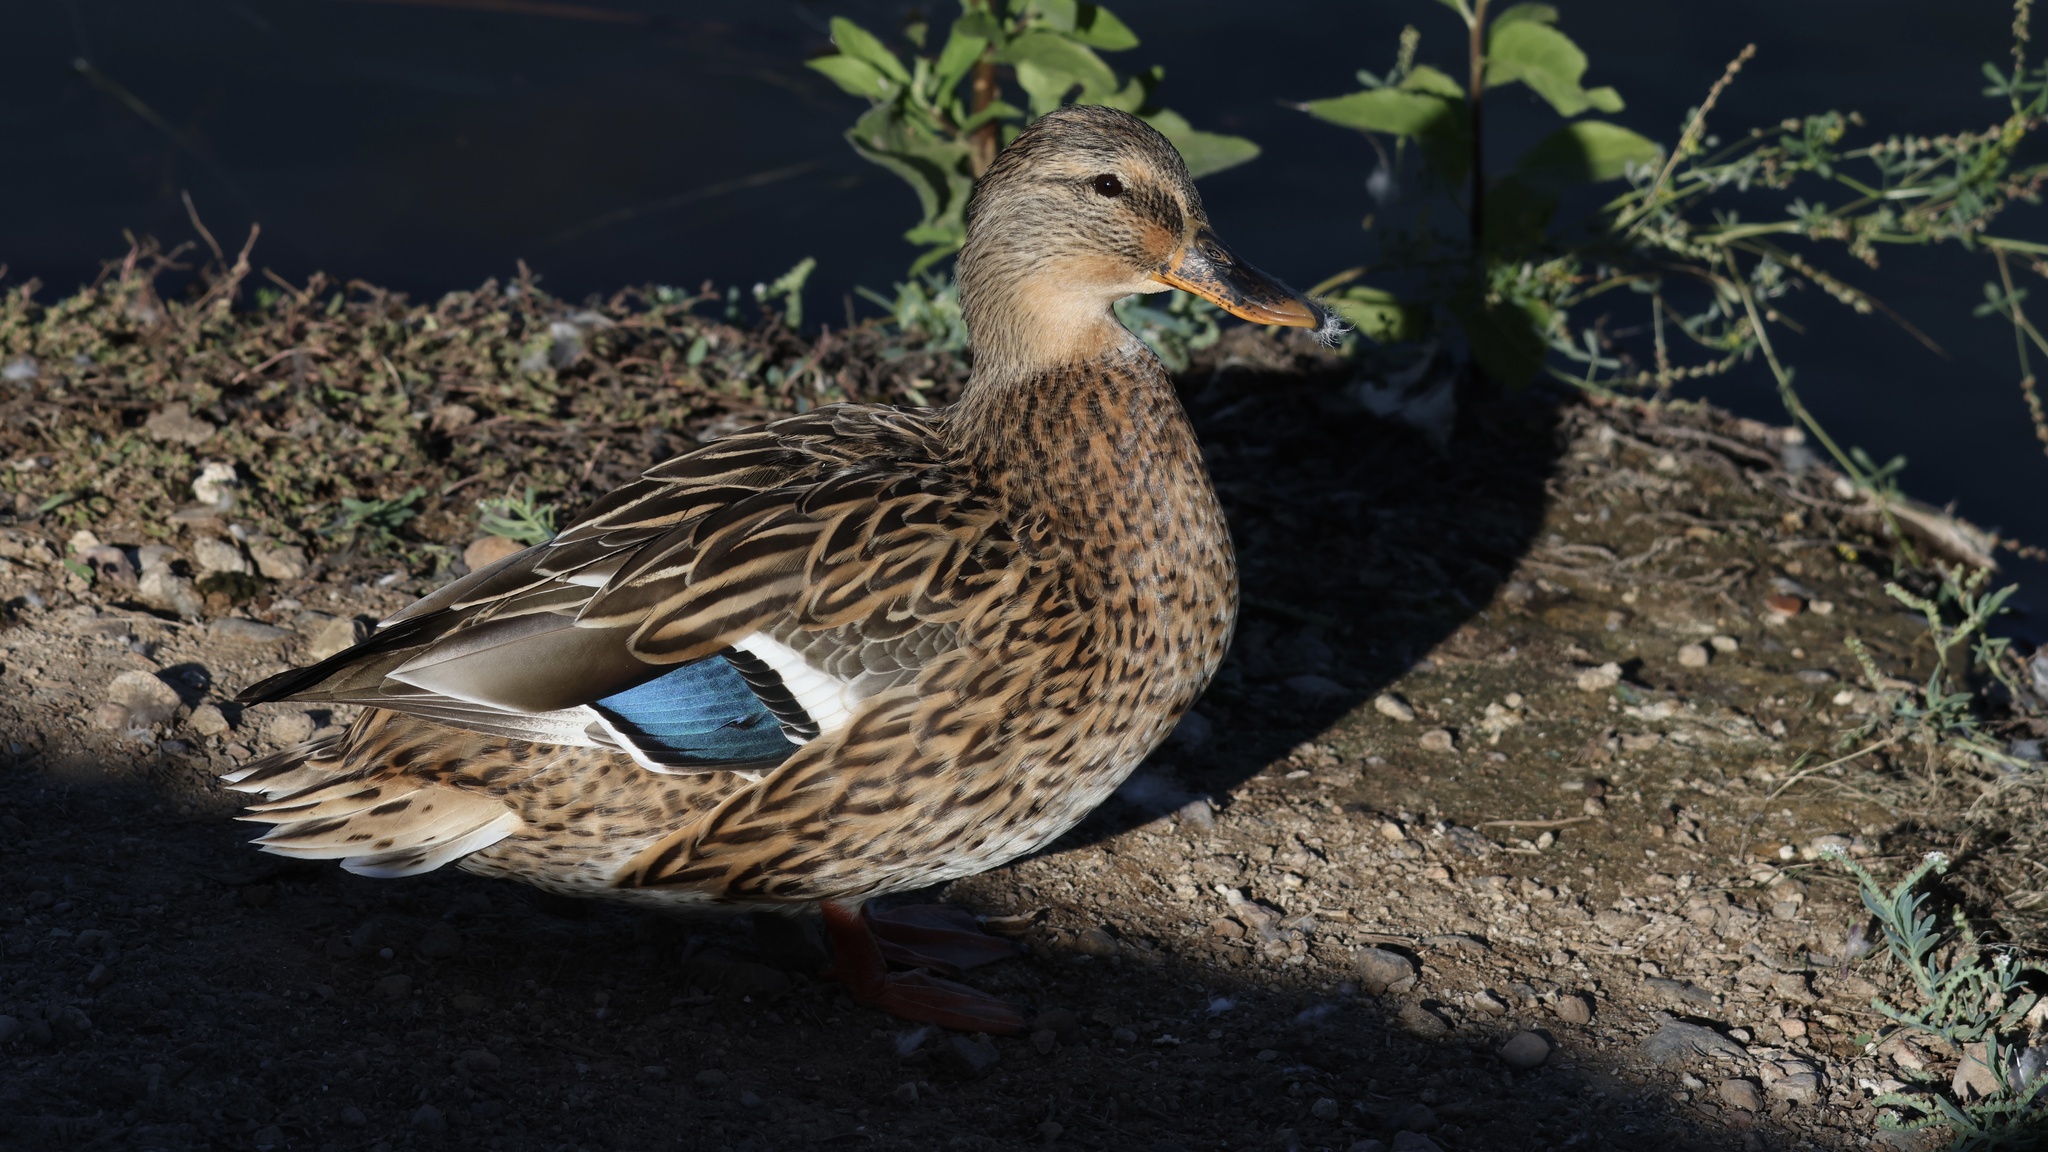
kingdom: Animalia
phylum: Chordata
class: Aves
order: Anseriformes
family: Anatidae
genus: Anas
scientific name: Anas platyrhynchos
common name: Mallard
